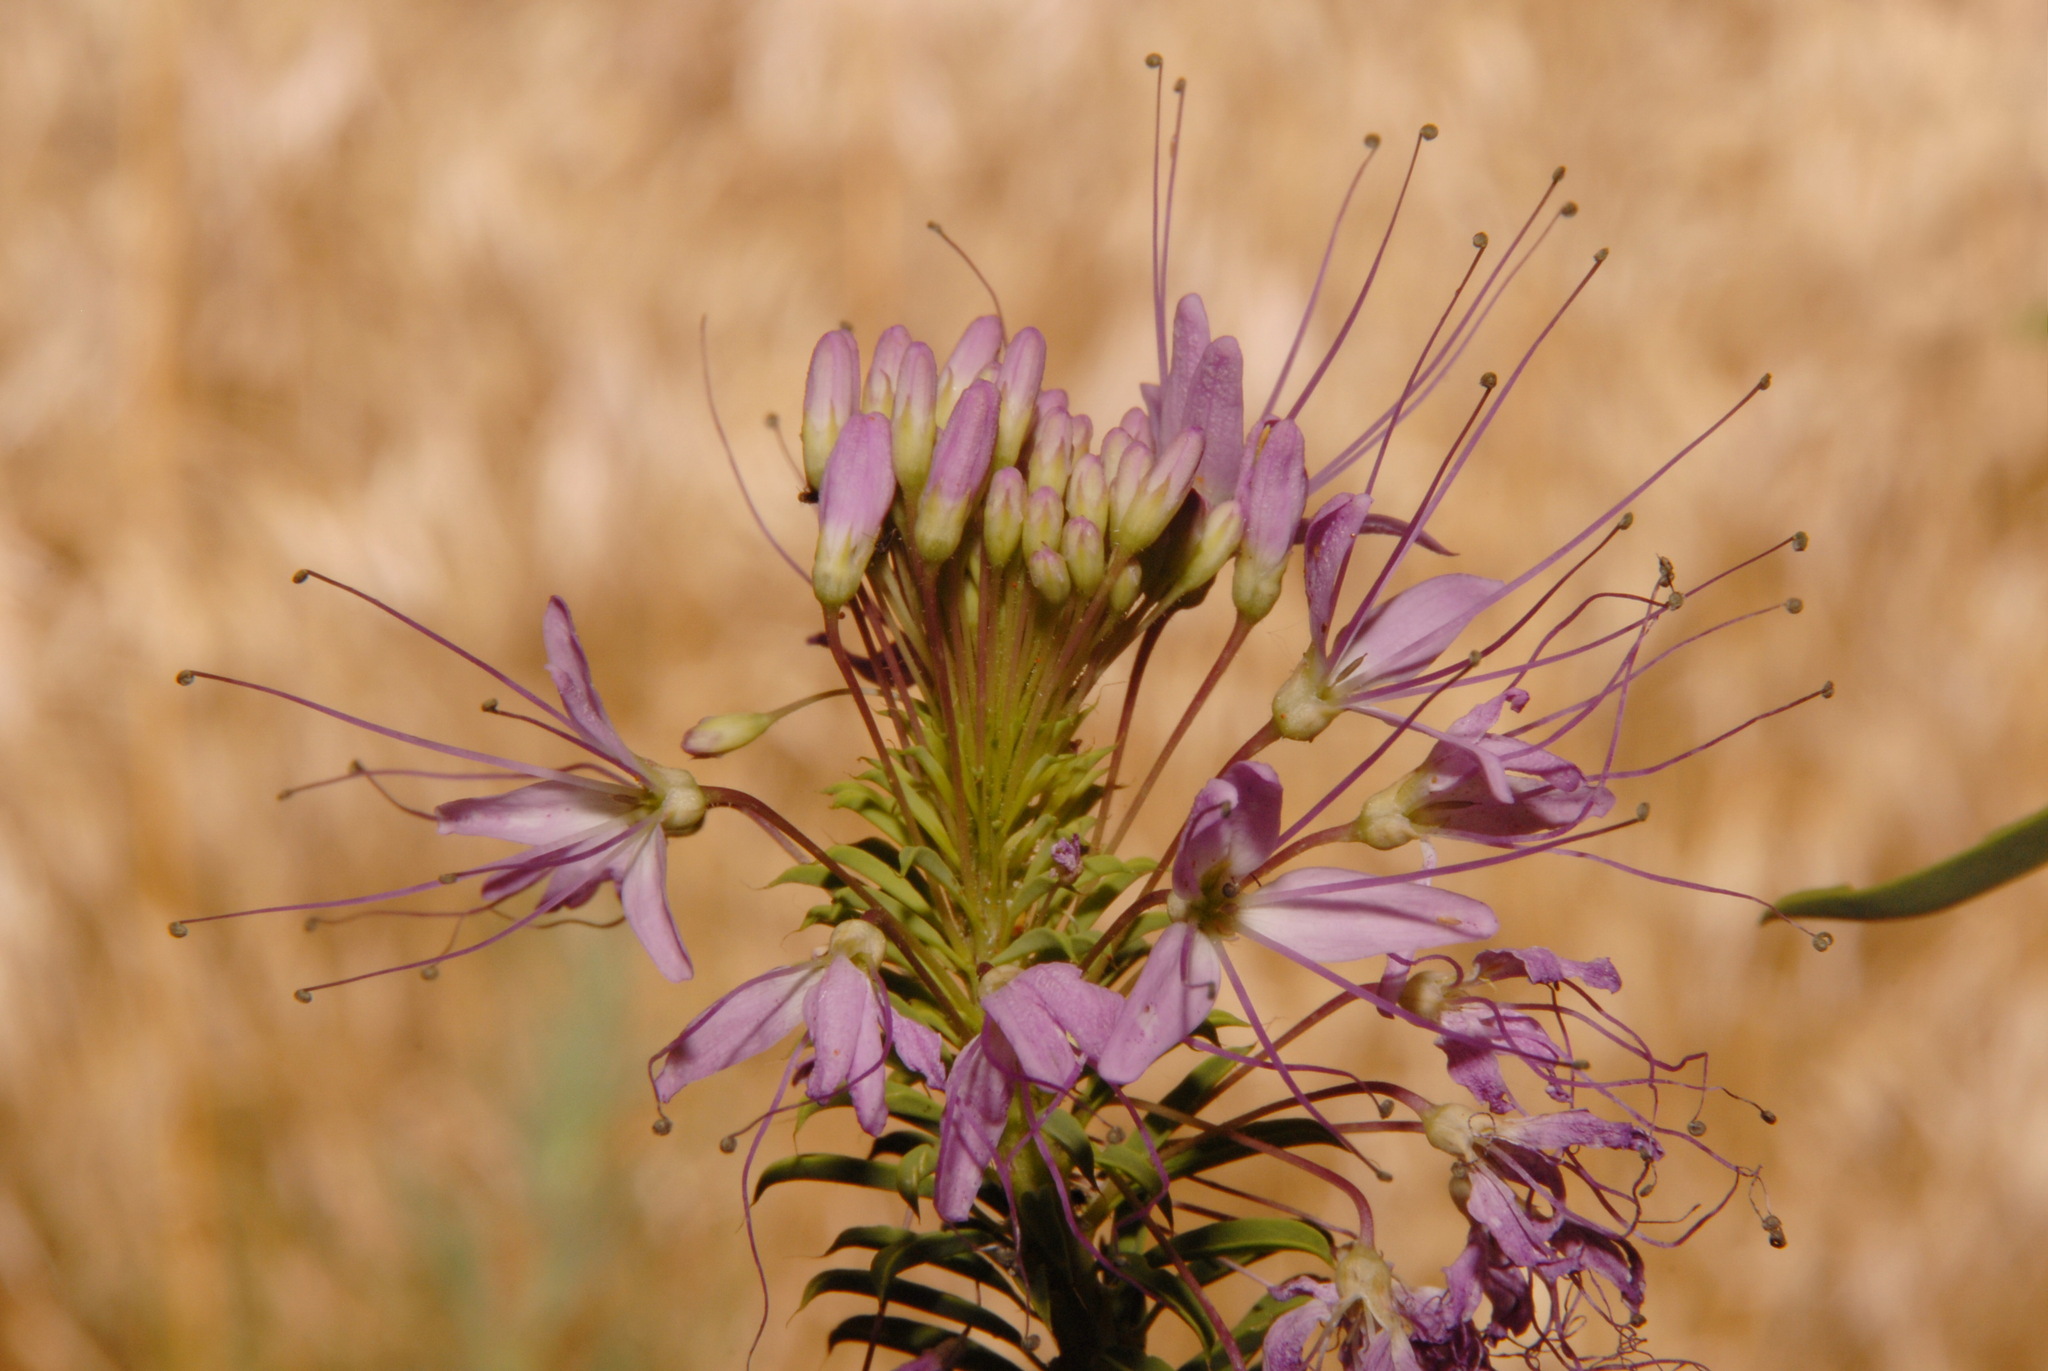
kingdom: Plantae
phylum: Tracheophyta
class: Magnoliopsida
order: Brassicales
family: Cleomaceae
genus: Cleomella
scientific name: Cleomella serrulata
